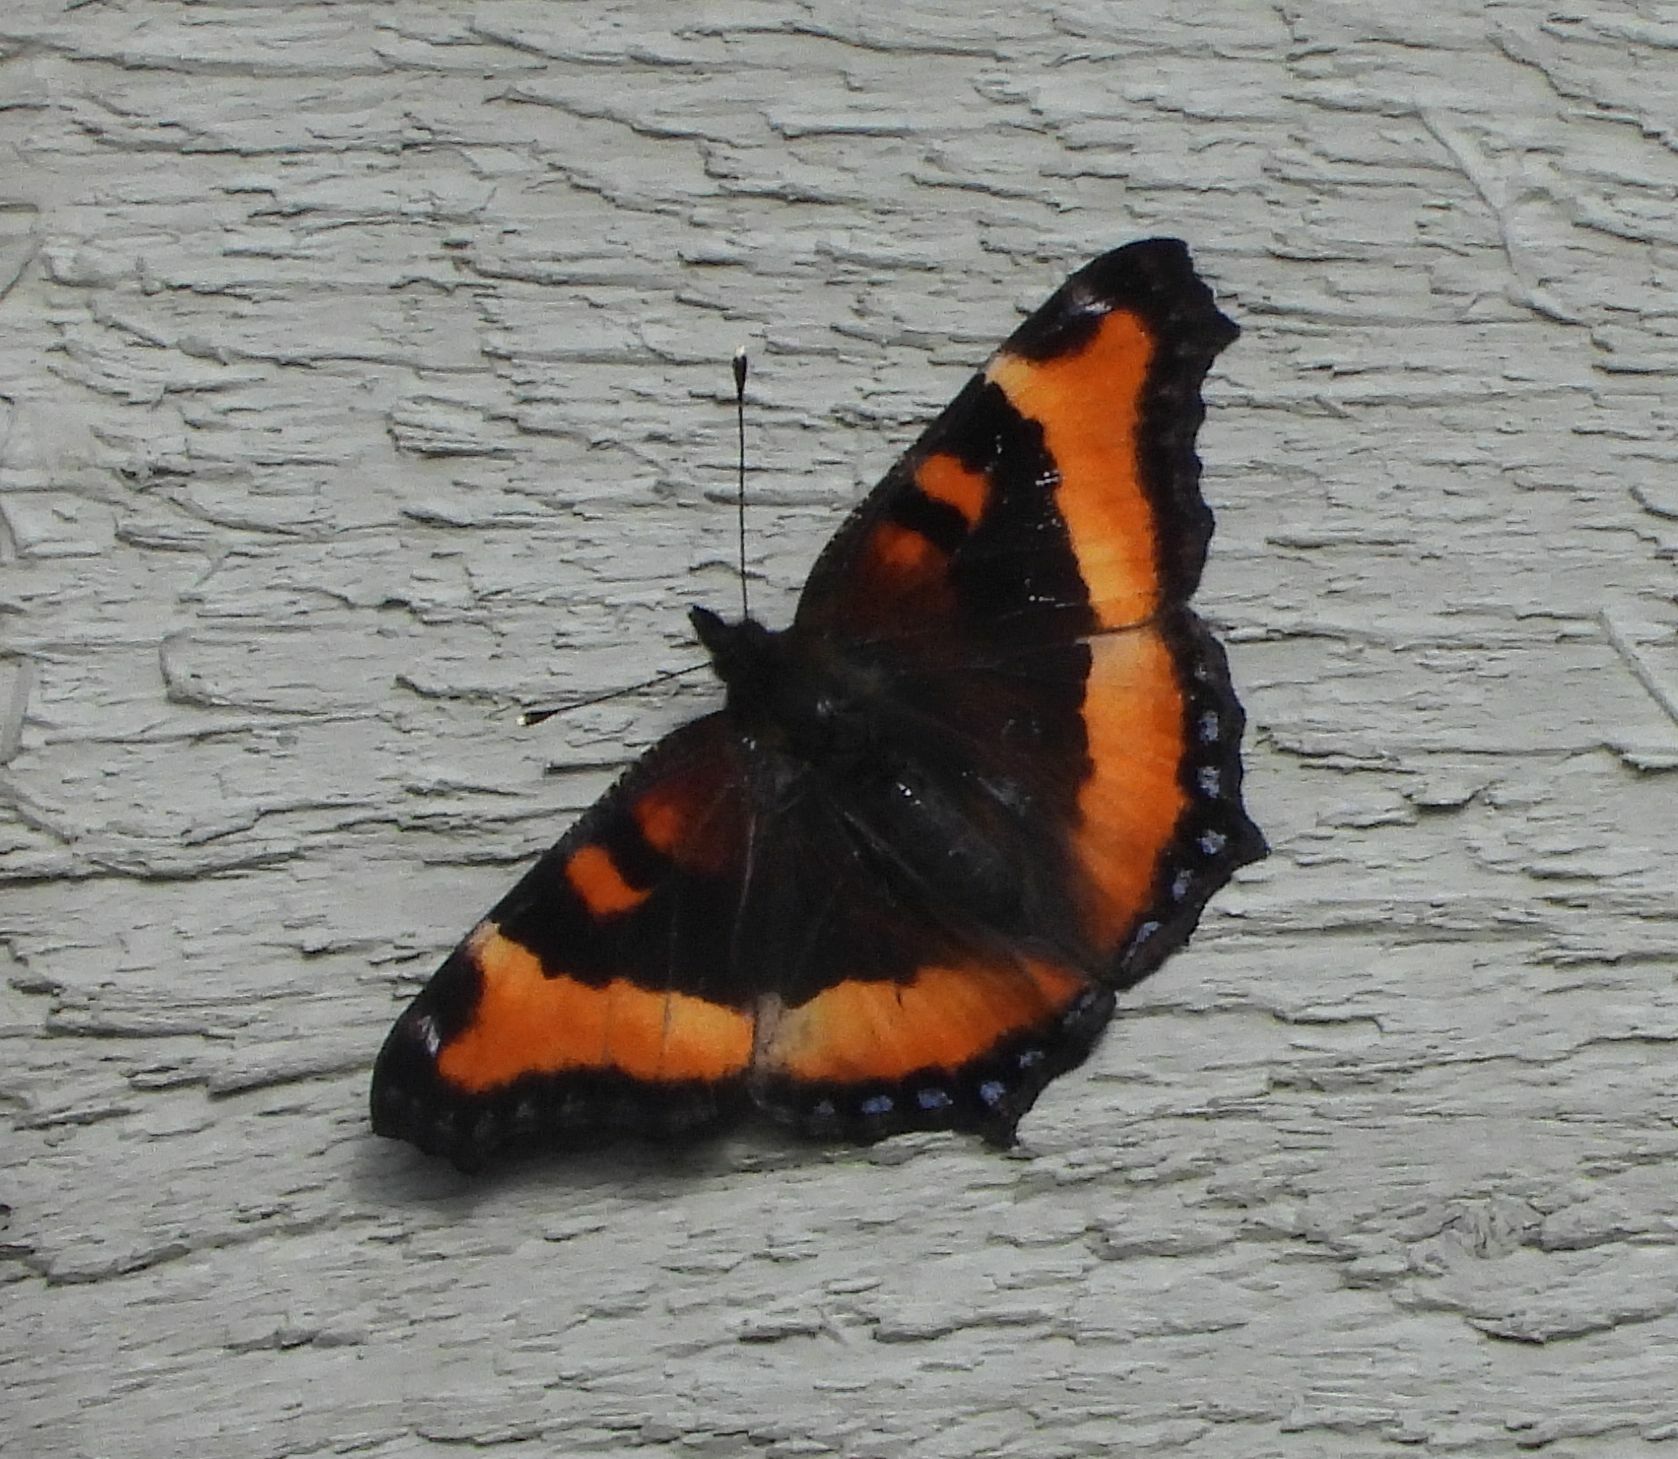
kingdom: Animalia
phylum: Arthropoda
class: Insecta
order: Lepidoptera
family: Nymphalidae
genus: Aglais
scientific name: Aglais milberti
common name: Milbert's tortoiseshell
